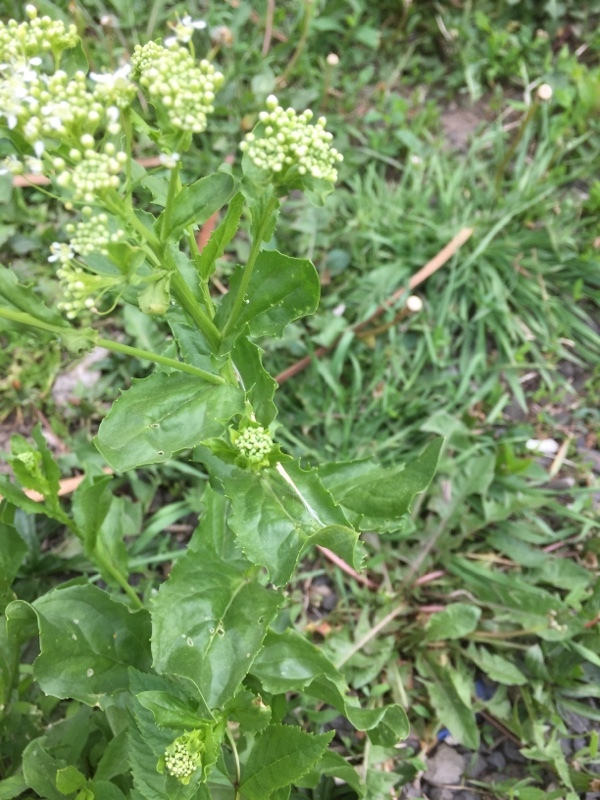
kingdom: Plantae
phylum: Tracheophyta
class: Magnoliopsida
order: Brassicales
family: Brassicaceae
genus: Lepidium
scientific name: Lepidium draba
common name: Hoary cress
